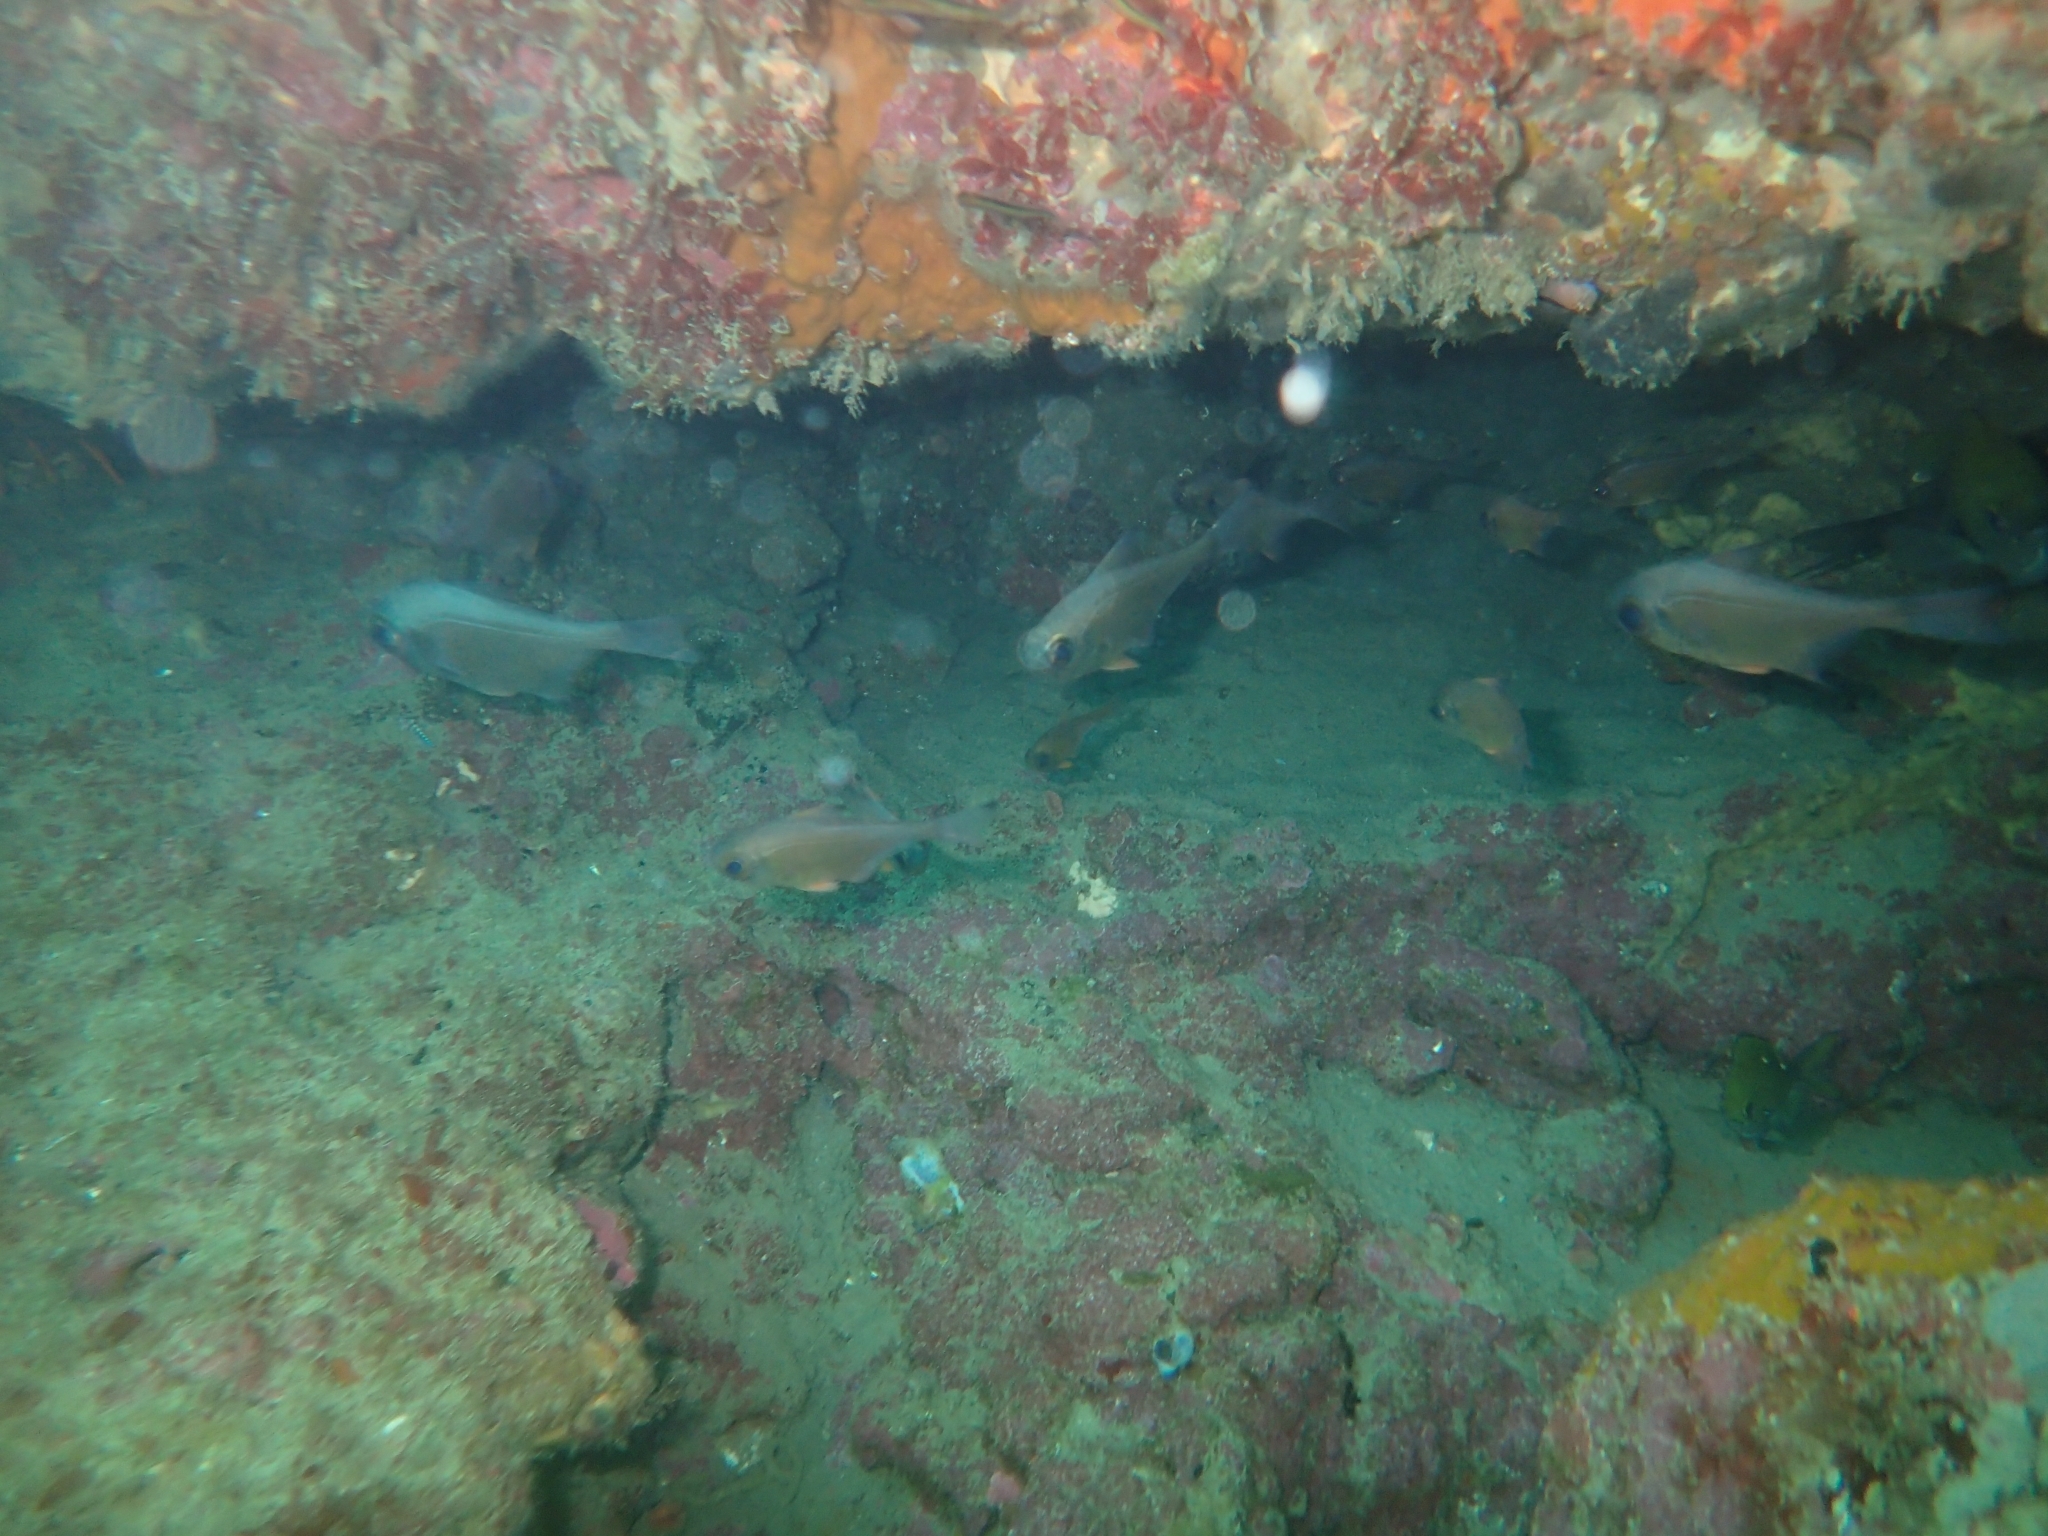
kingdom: Animalia
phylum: Chordata
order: Perciformes
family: Pempheridae
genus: Pempheris
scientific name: Pempheris adspersa
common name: Bigeye
